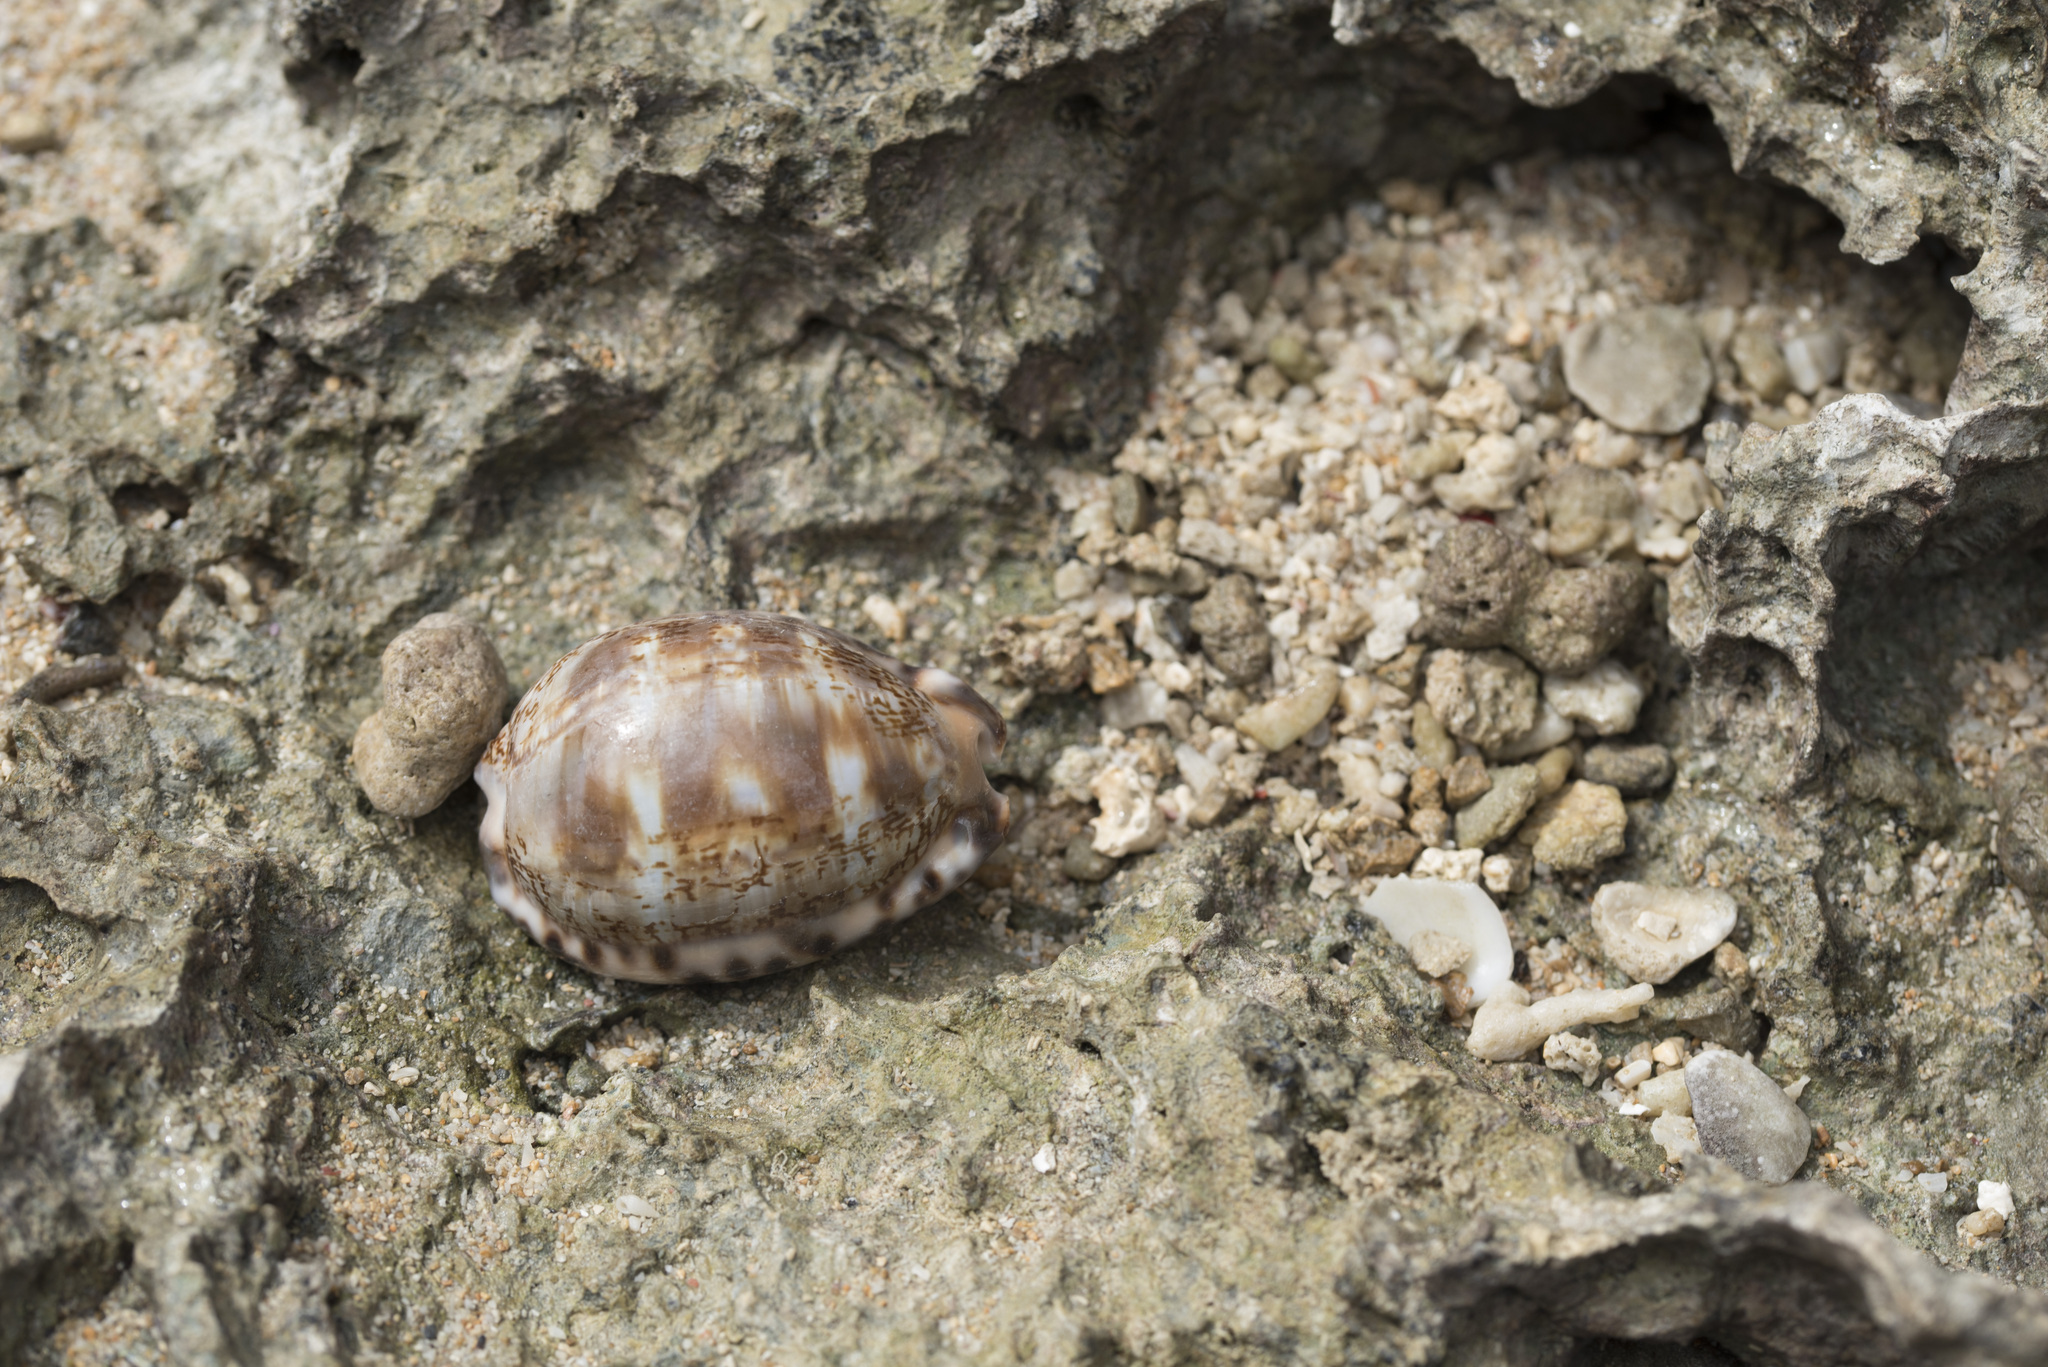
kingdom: Animalia
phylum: Mollusca
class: Gastropoda
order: Littorinimorpha
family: Cypraeidae
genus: Mauritia
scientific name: Mauritia arabica
